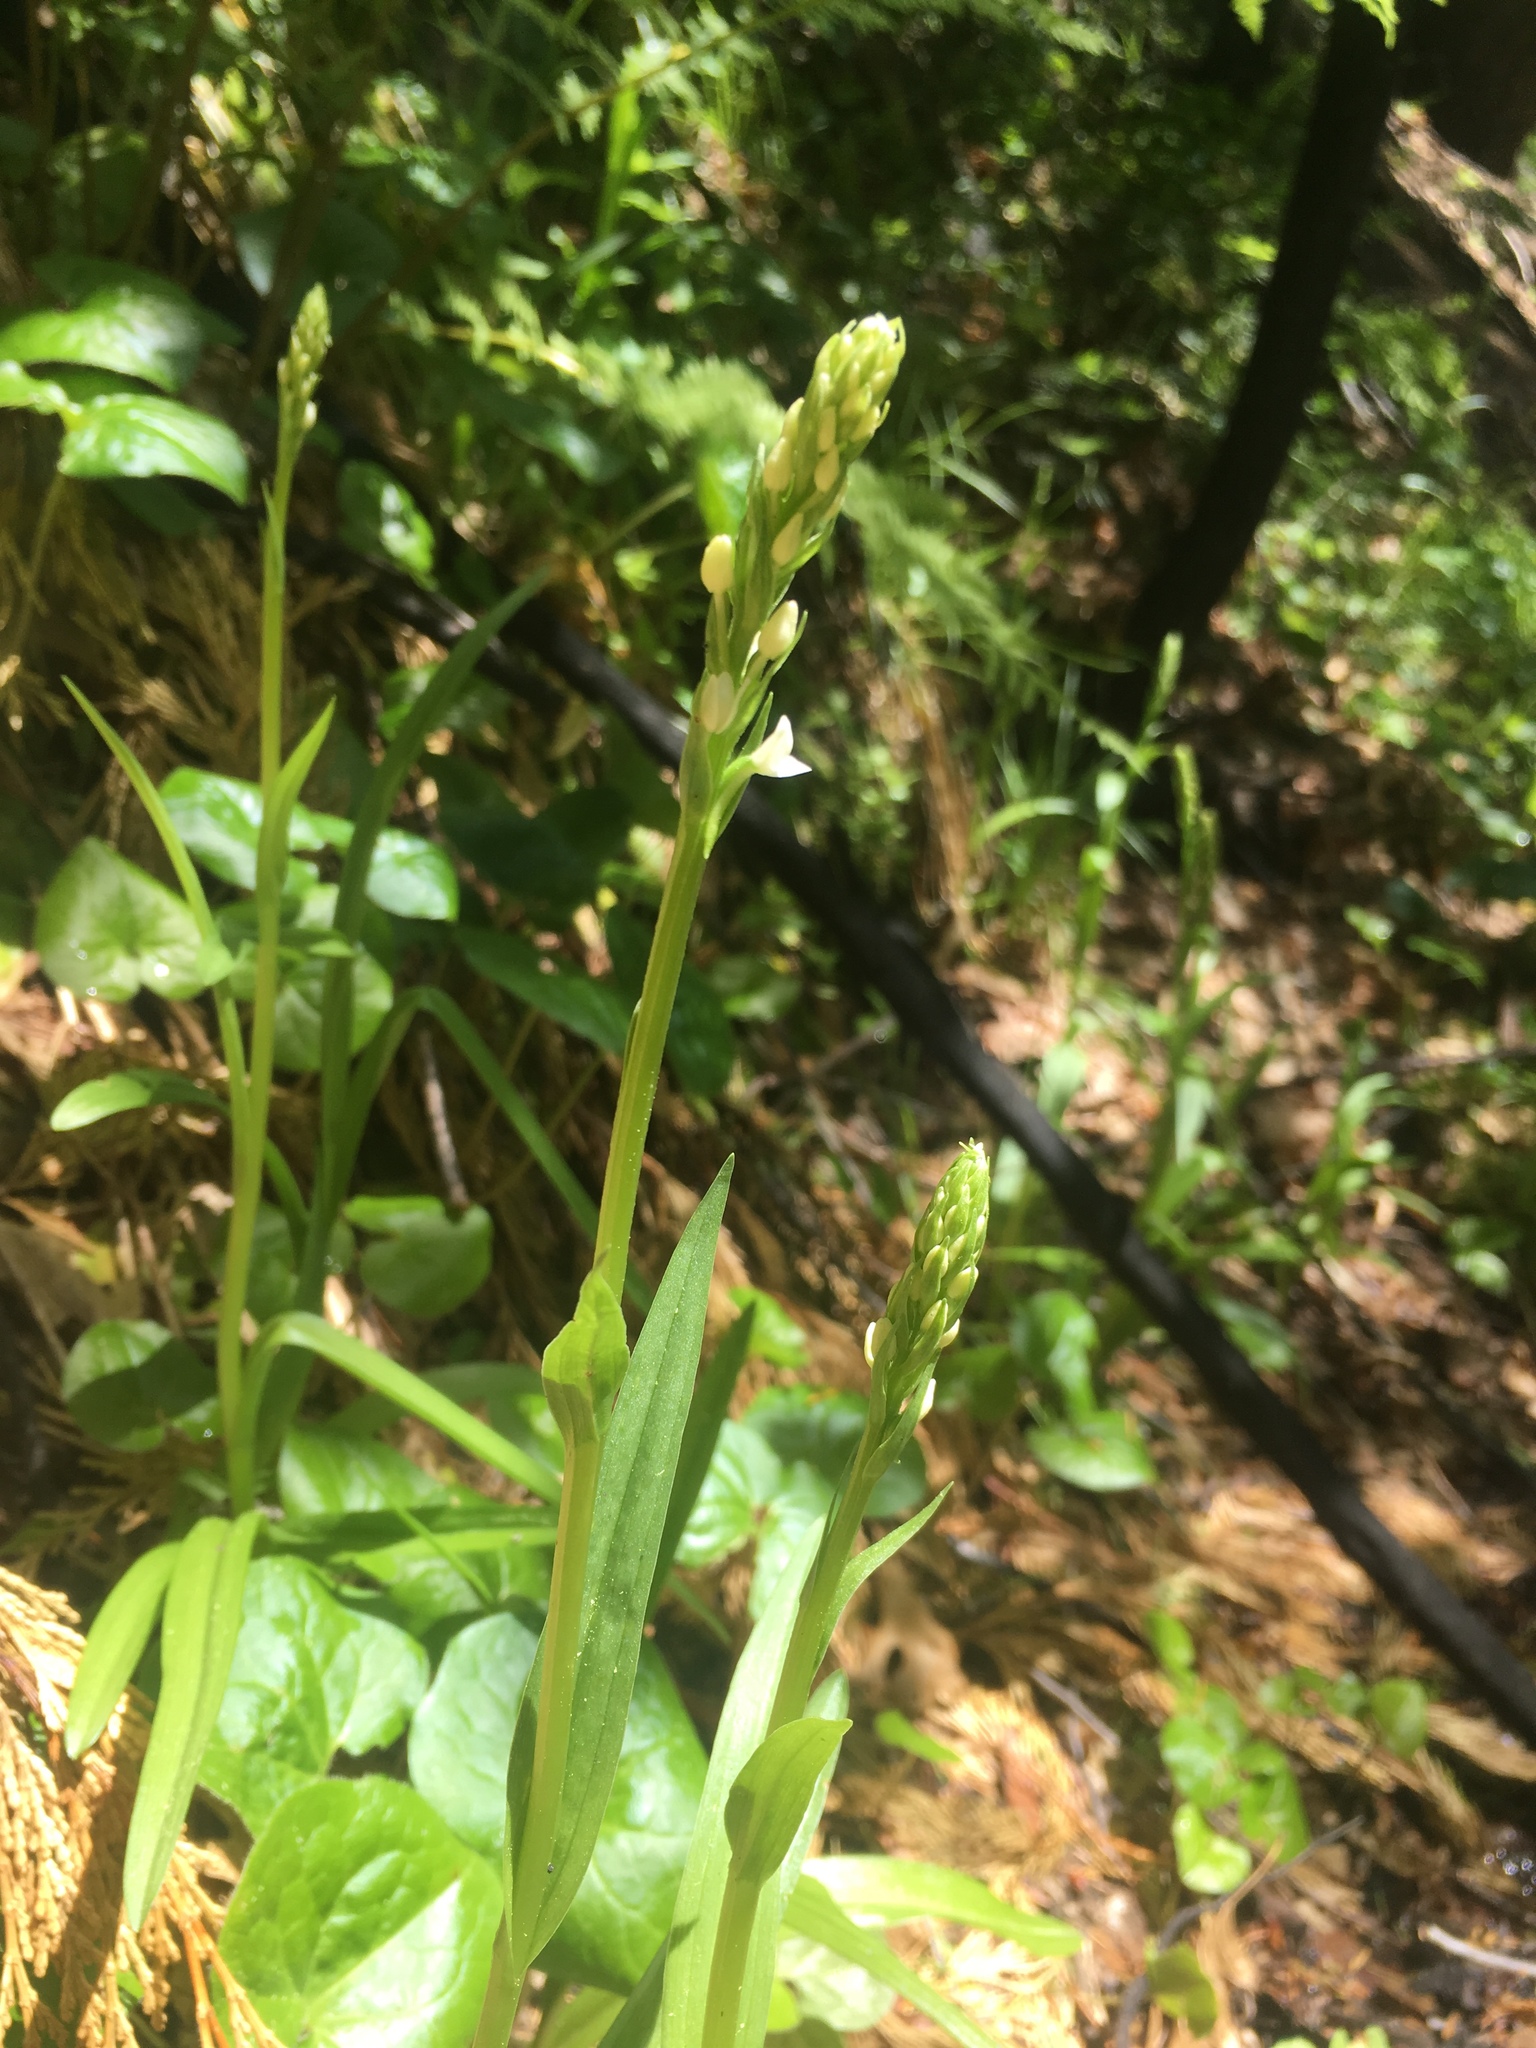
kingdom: Plantae
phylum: Tracheophyta
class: Liliopsida
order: Asparagales
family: Orchidaceae
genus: Platanthera
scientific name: Platanthera dilatata
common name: Bog candles
